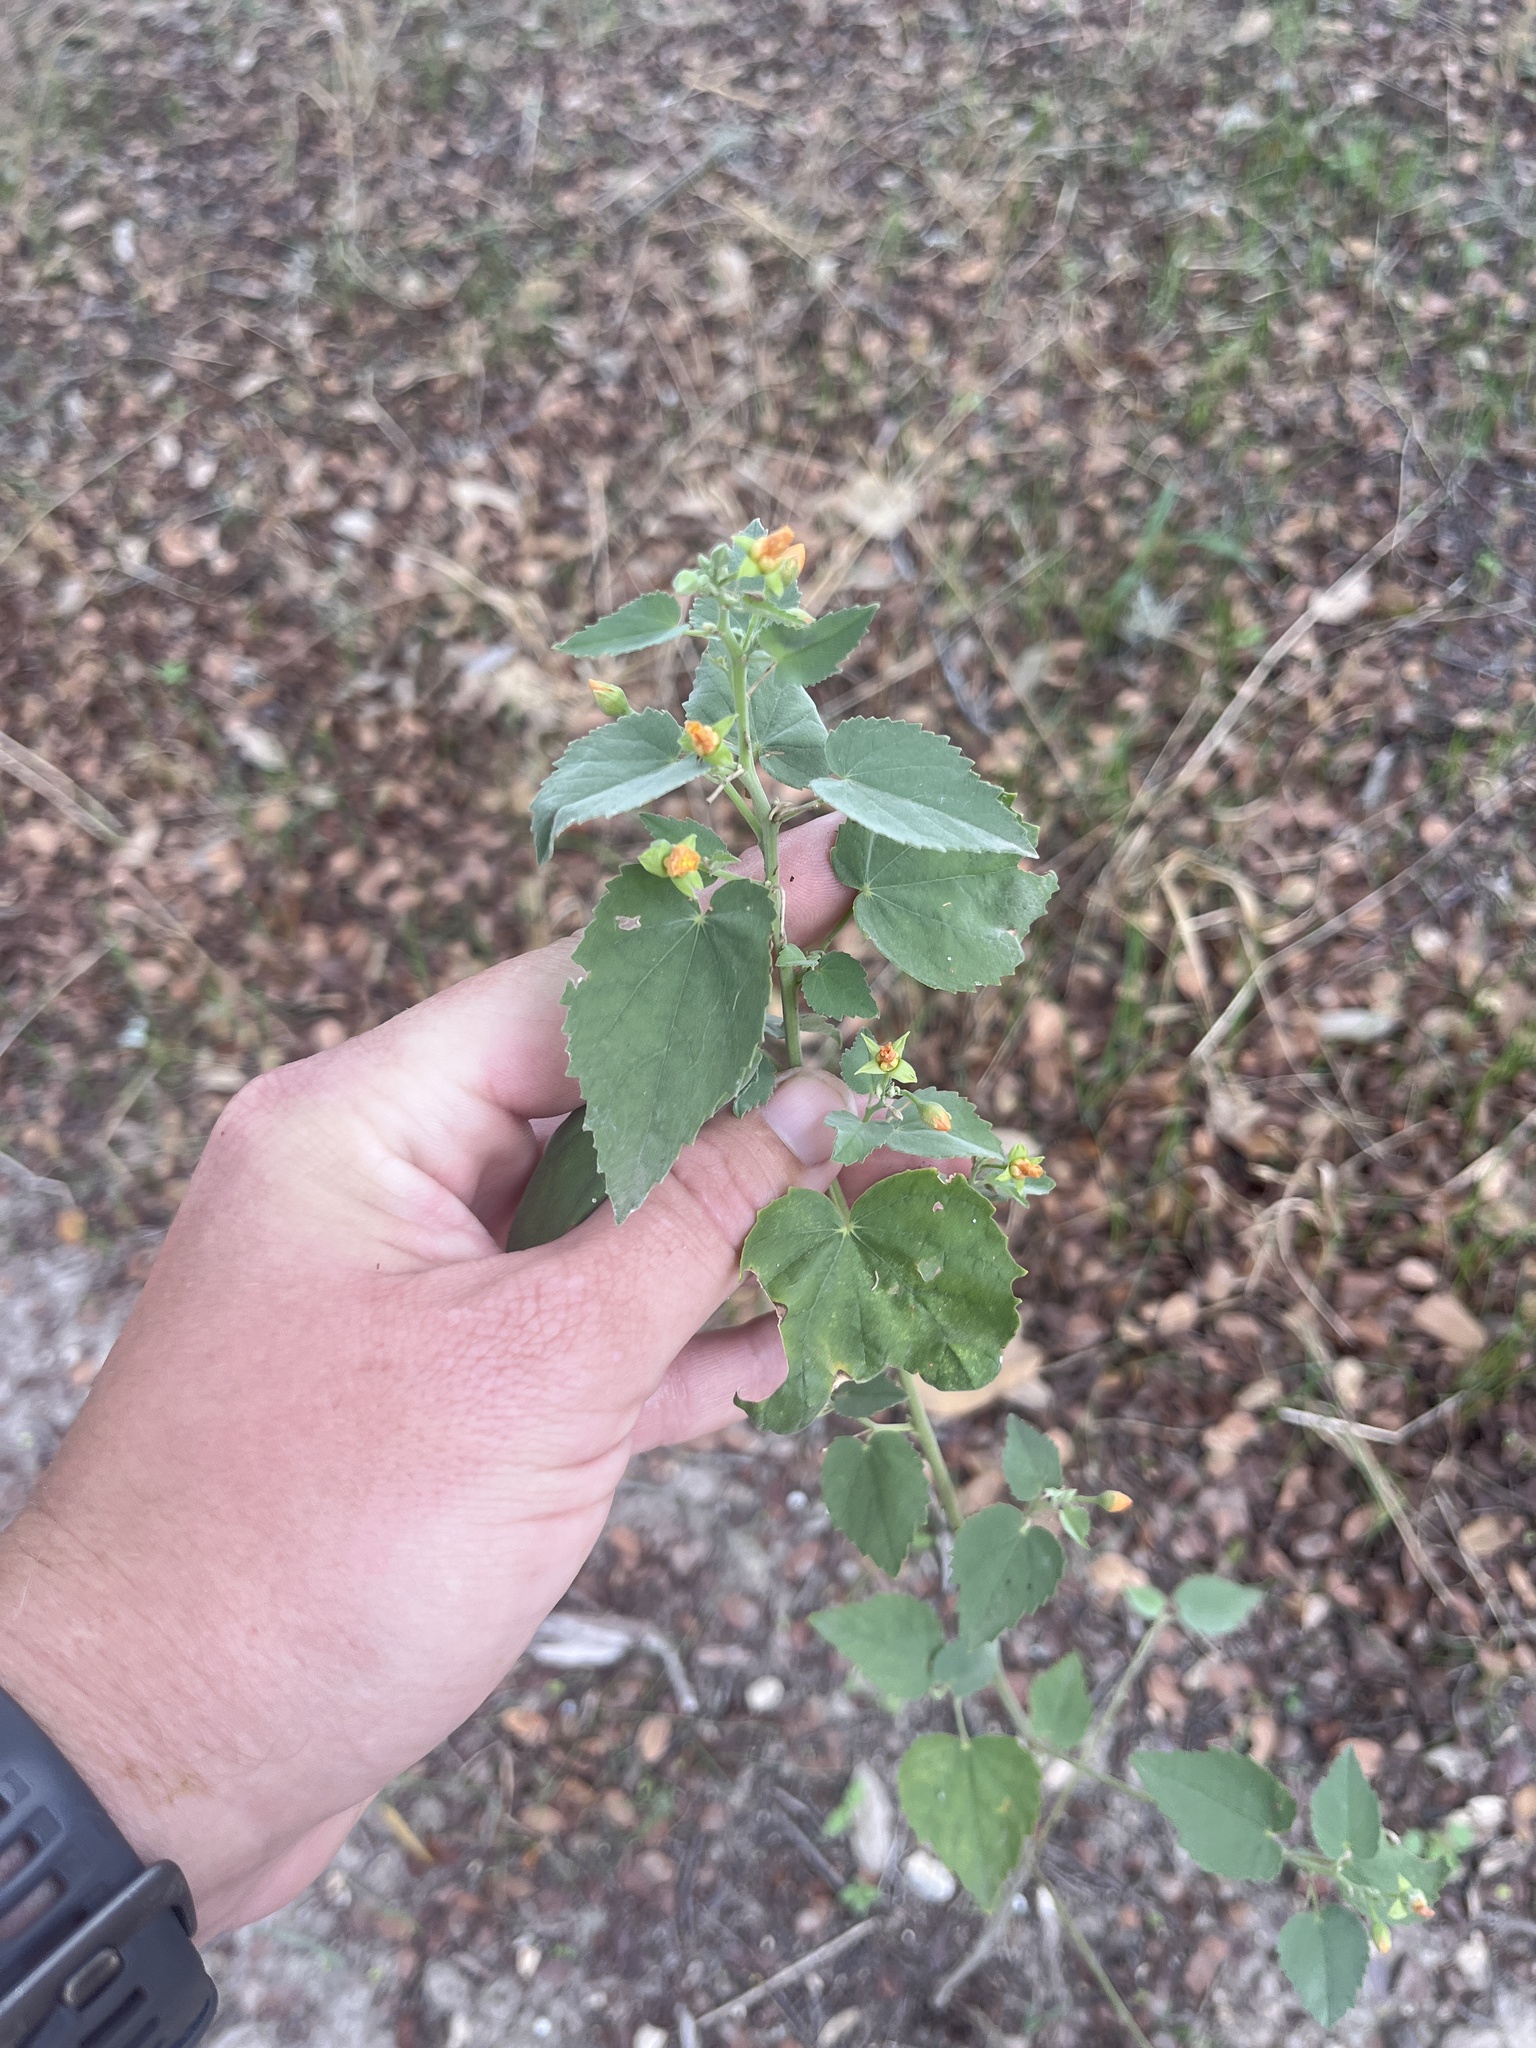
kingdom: Plantae
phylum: Tracheophyta
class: Magnoliopsida
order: Malvales
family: Malvaceae
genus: Abutilon
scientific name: Abutilon fruticosum
